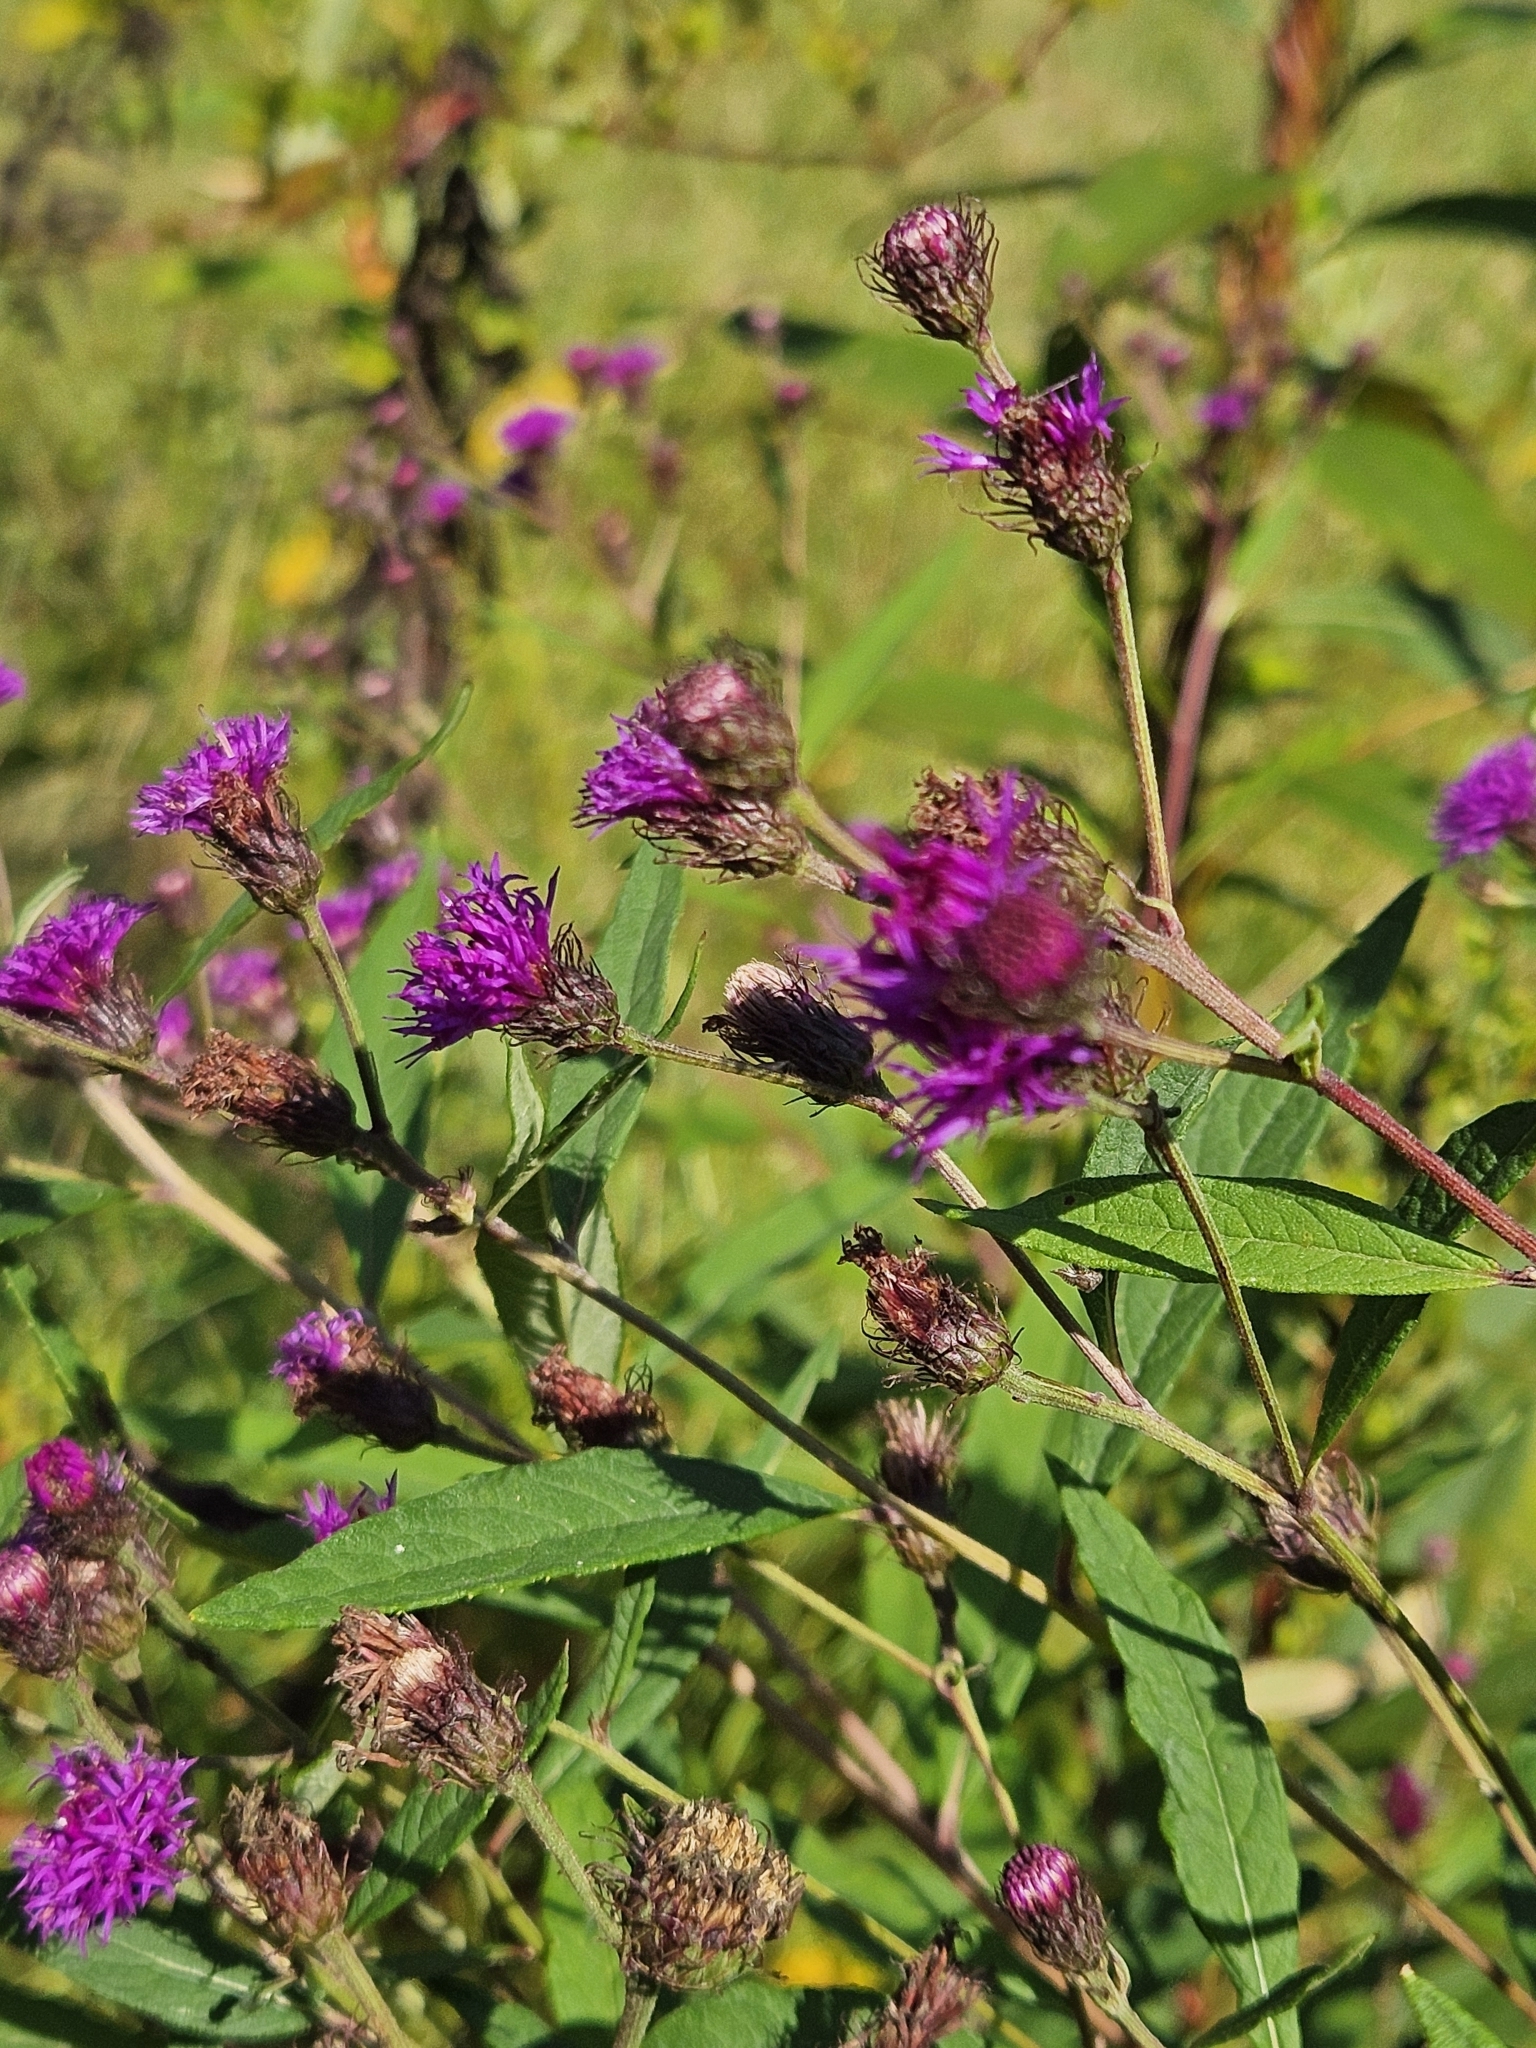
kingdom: Plantae
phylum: Tracheophyta
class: Magnoliopsida
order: Asterales
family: Asteraceae
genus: Vernonia
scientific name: Vernonia noveboracensis
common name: New york ironweed
